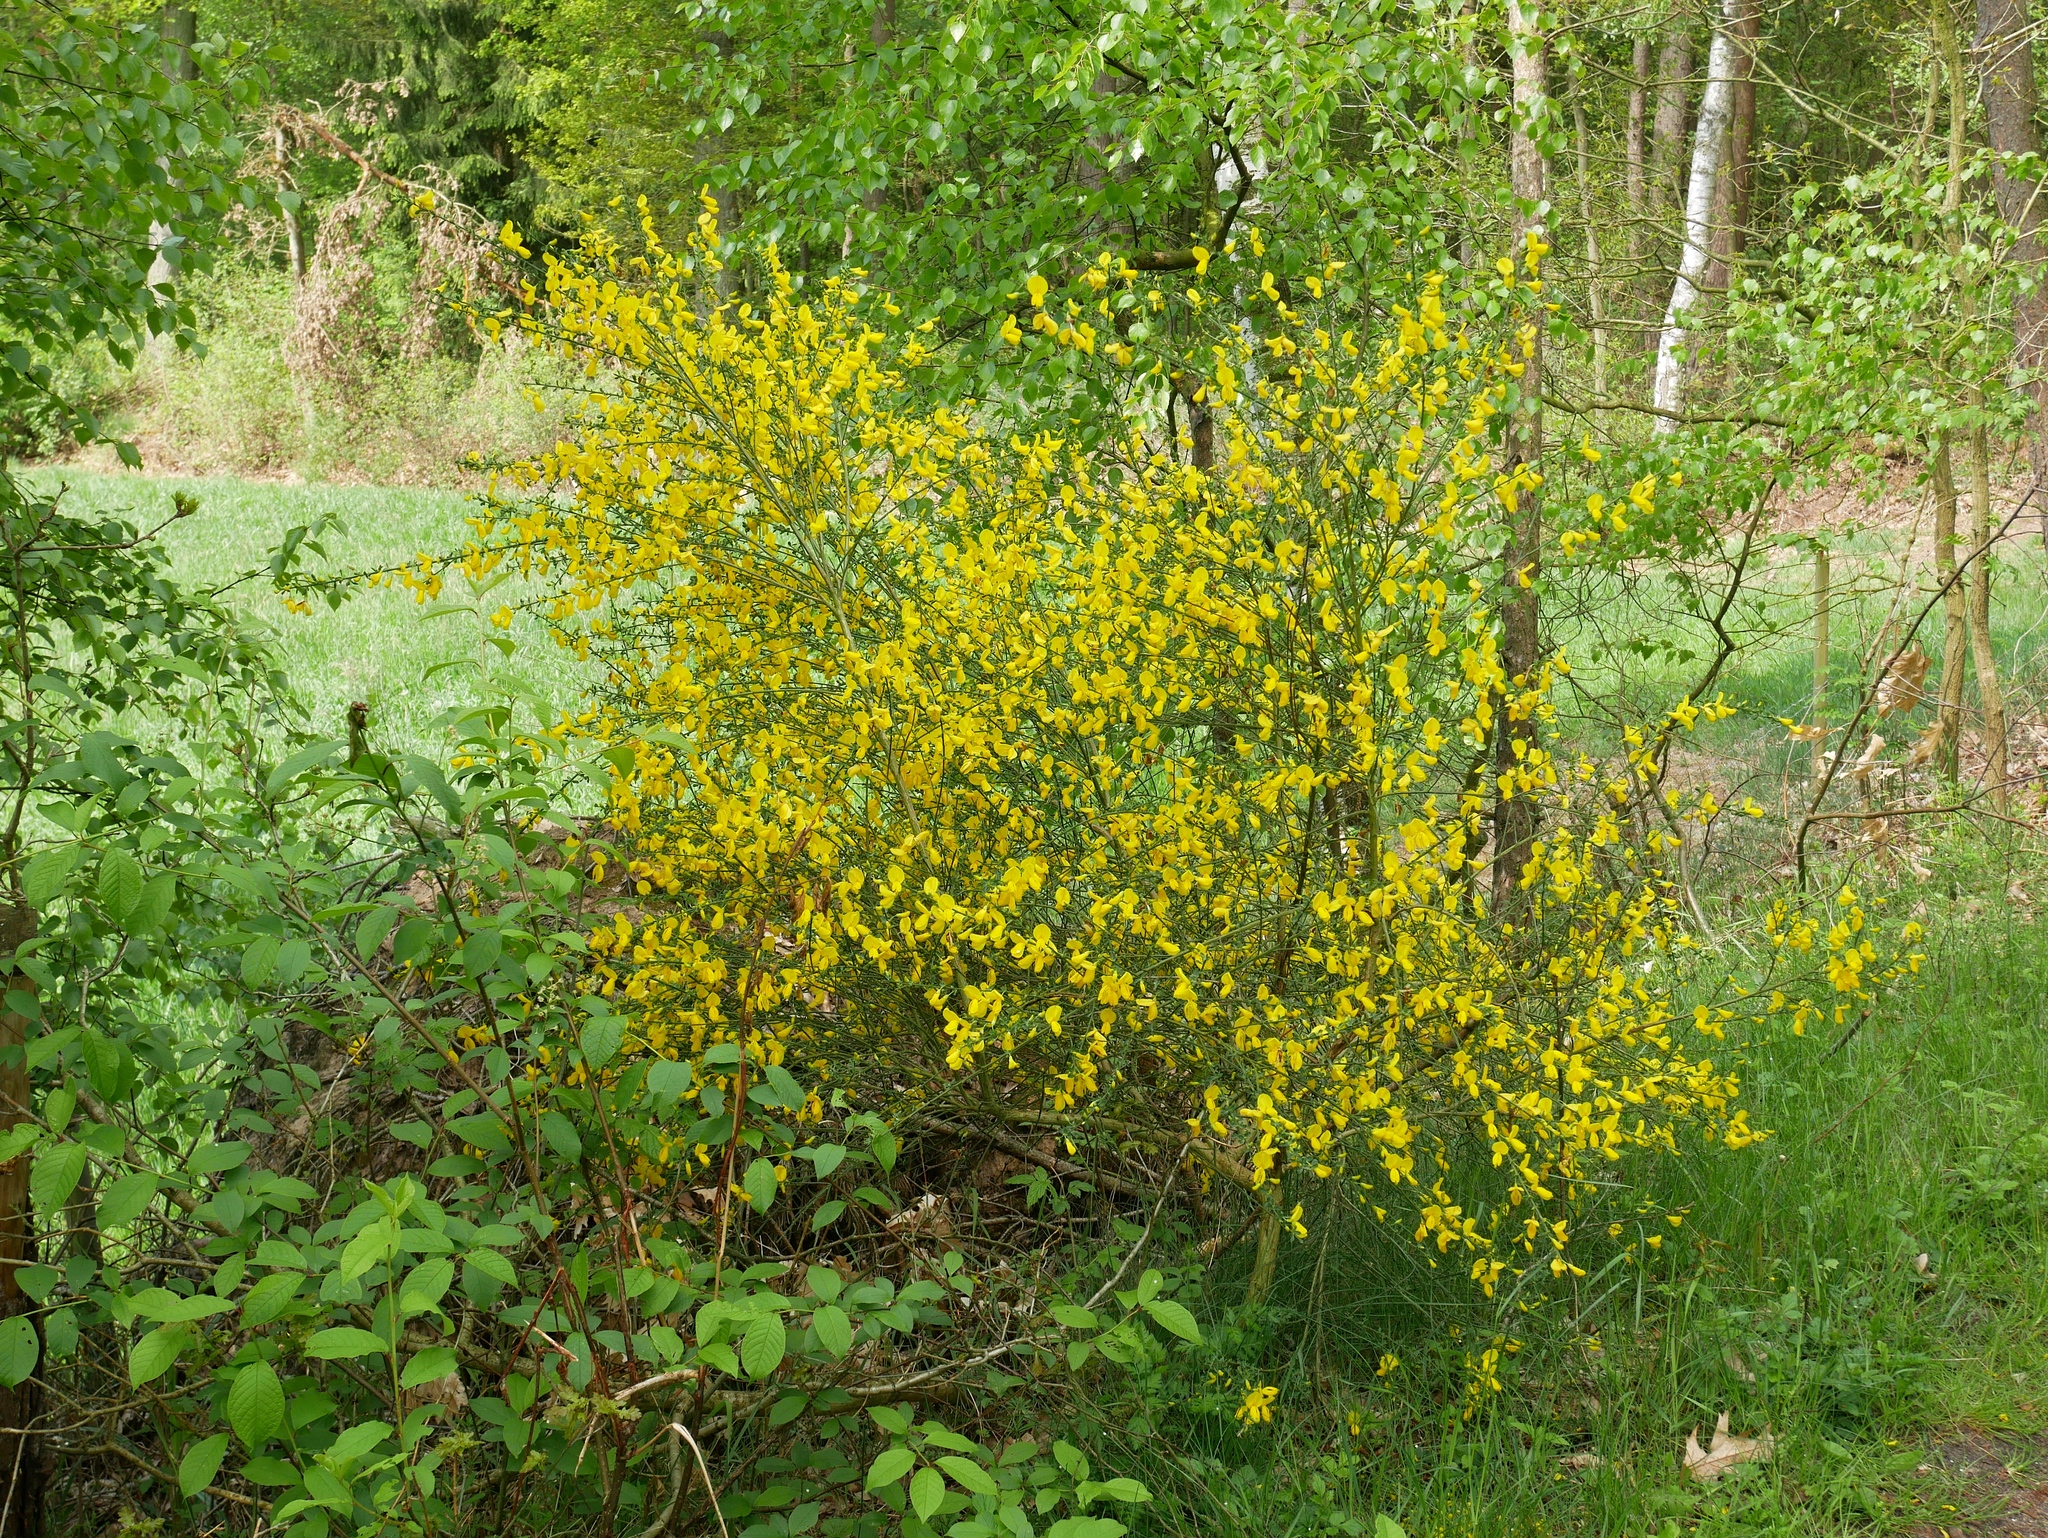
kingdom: Plantae
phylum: Tracheophyta
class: Magnoliopsida
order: Fabales
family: Fabaceae
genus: Cytisus
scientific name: Cytisus scoparius
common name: Scotch broom
